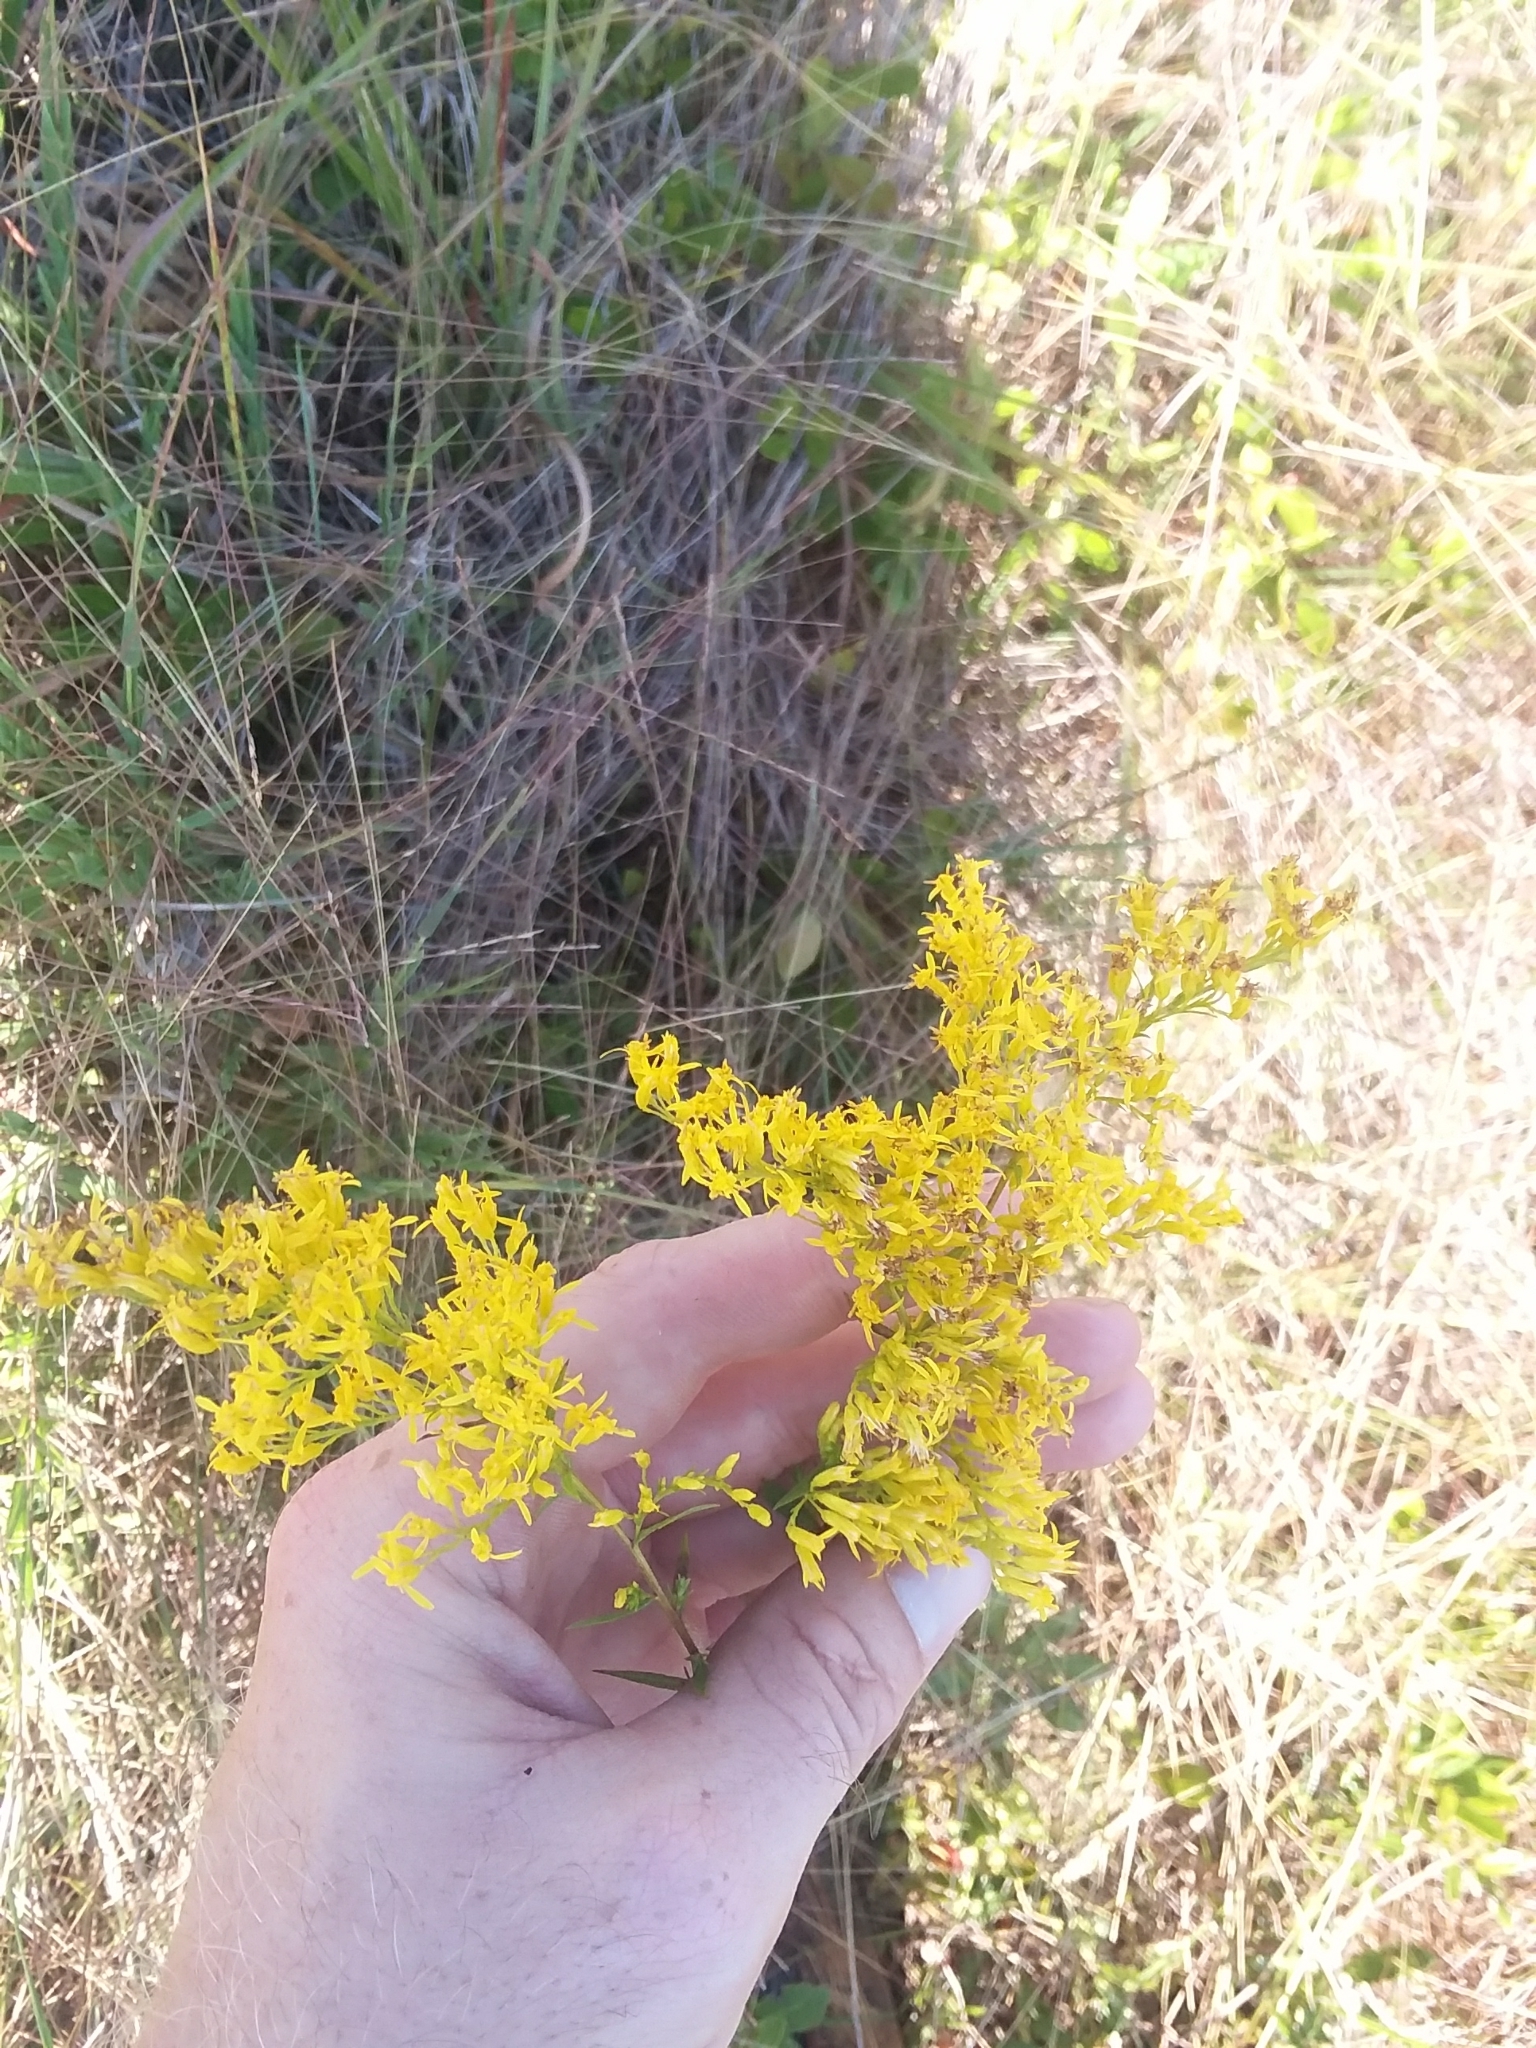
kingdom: Plantae
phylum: Tracheophyta
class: Magnoliopsida
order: Asterales
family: Asteraceae
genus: Solidago
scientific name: Solidago odora
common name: Anise-scented goldenrod
